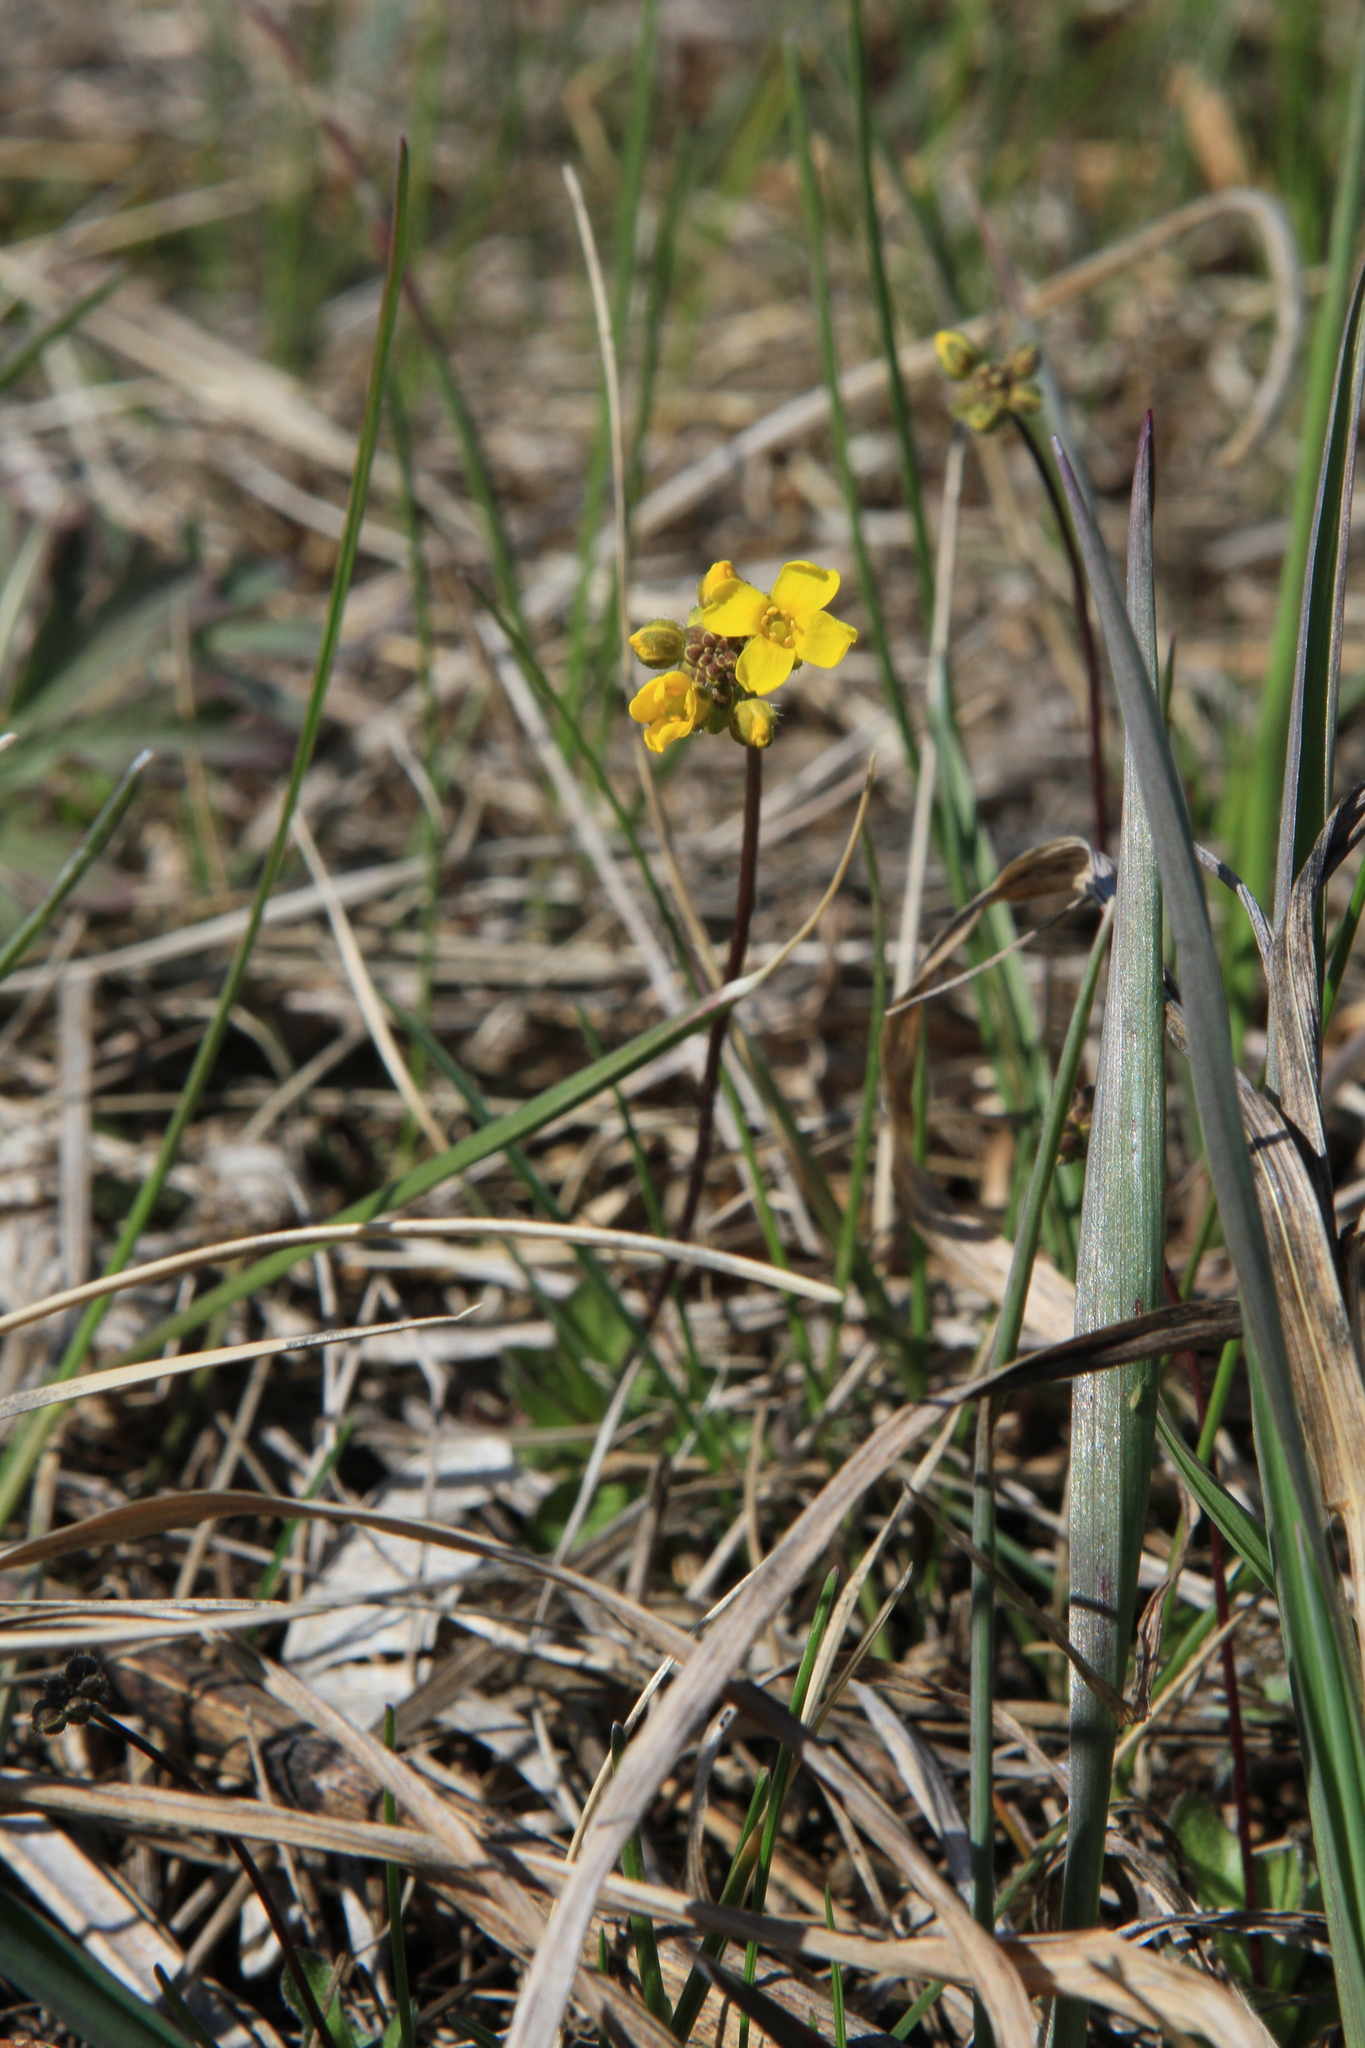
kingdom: Plantae
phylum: Tracheophyta
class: Magnoliopsida
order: Brassicales
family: Brassicaceae
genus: Draba
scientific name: Draba sibirica
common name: Siberian draba
